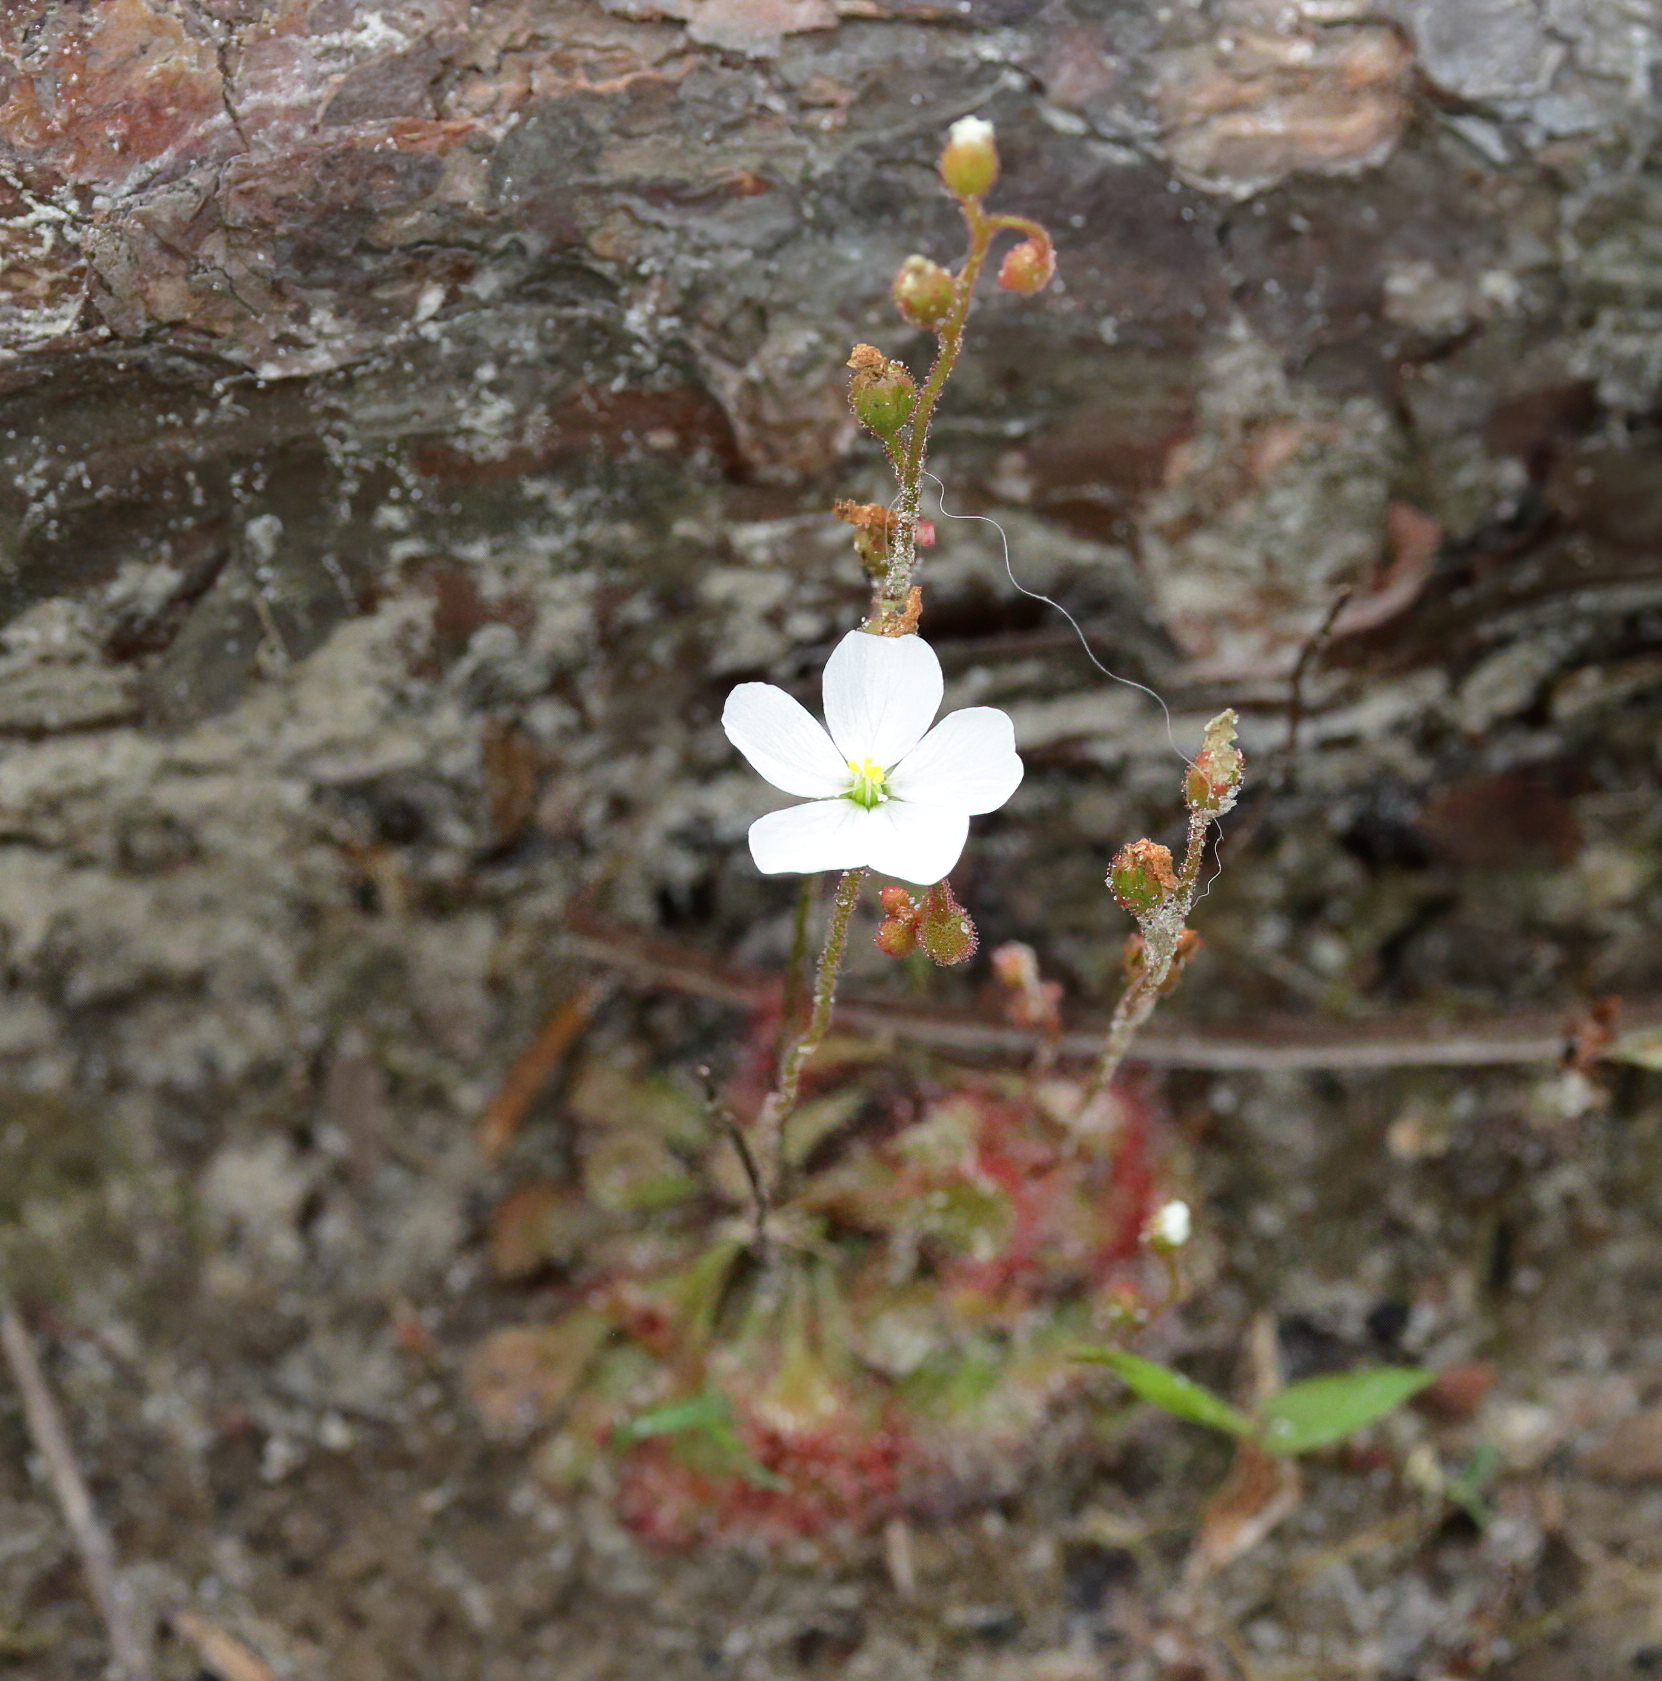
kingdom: Plantae
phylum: Tracheophyta
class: Magnoliopsida
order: Caryophyllales
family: Droseraceae
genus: Drosera
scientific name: Drosera brevifolia
